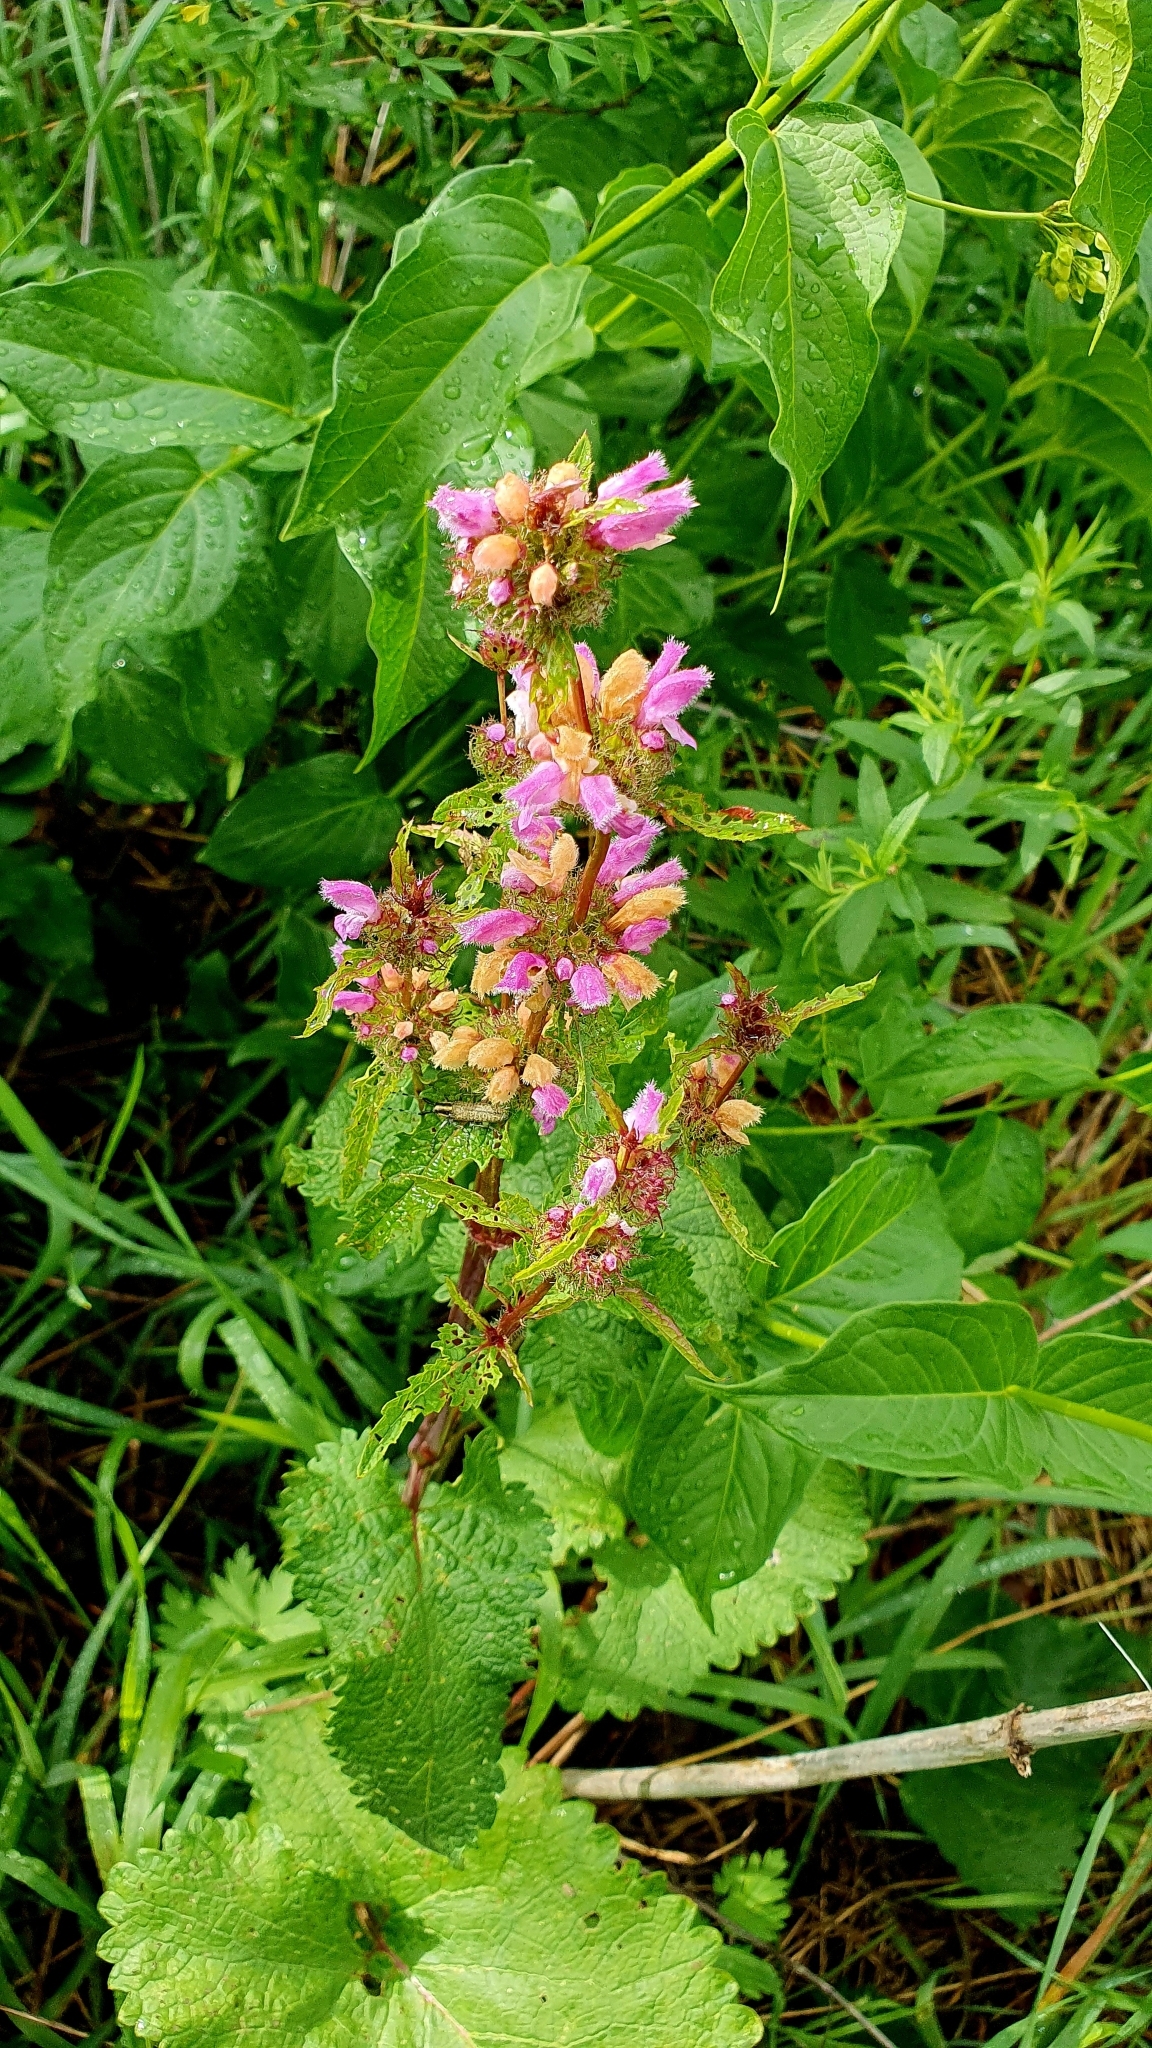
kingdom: Plantae
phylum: Tracheophyta
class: Magnoliopsida
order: Lamiales
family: Lamiaceae
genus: Phlomoides
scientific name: Phlomoides tuberosa
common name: Tuberous jerusalem sage
